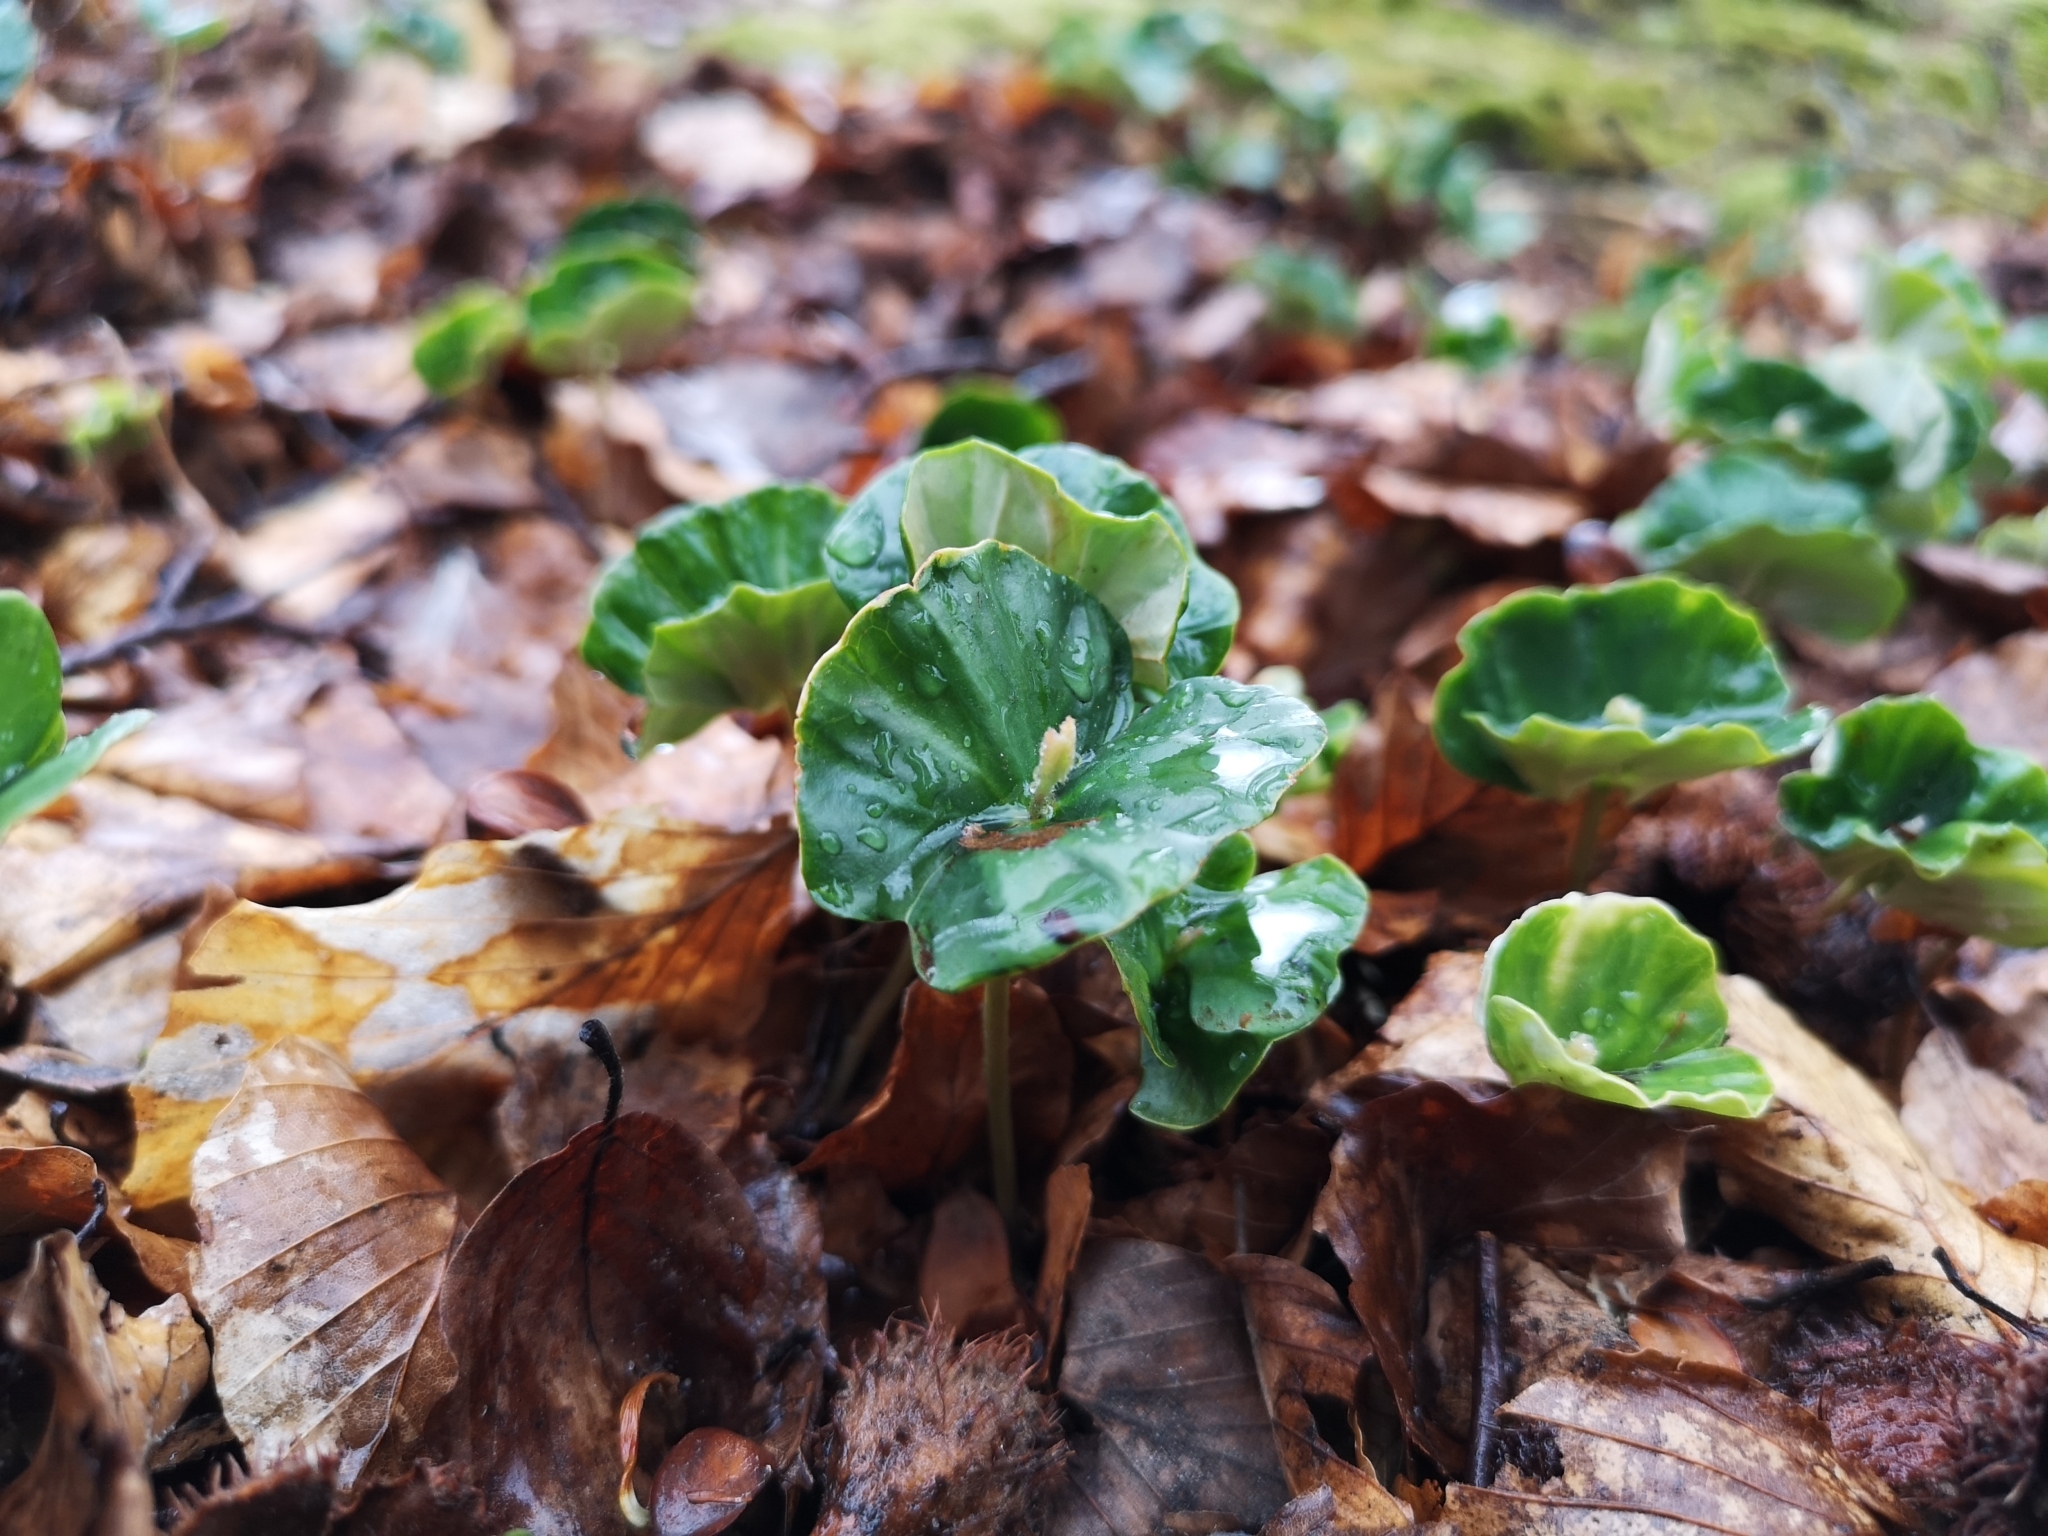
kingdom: Plantae
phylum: Tracheophyta
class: Magnoliopsida
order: Fagales
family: Fagaceae
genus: Fagus
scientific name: Fagus sylvatica
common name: Beech
